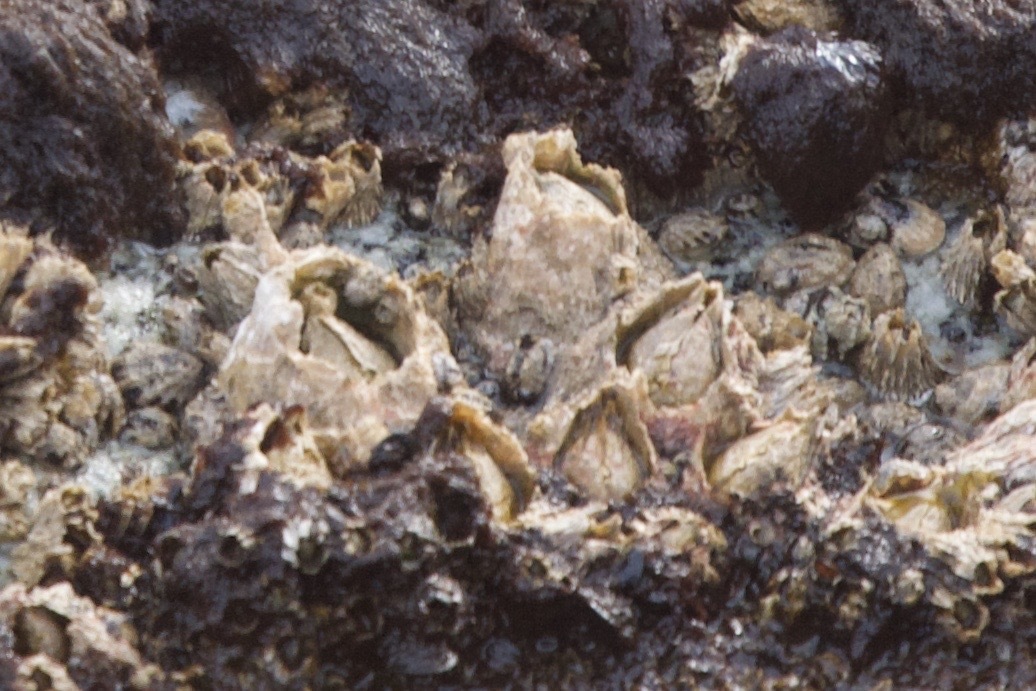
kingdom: Animalia
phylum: Arthropoda
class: Maxillopoda
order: Sessilia
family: Archaeobalanidae
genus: Semibalanus
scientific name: Semibalanus cariosus
